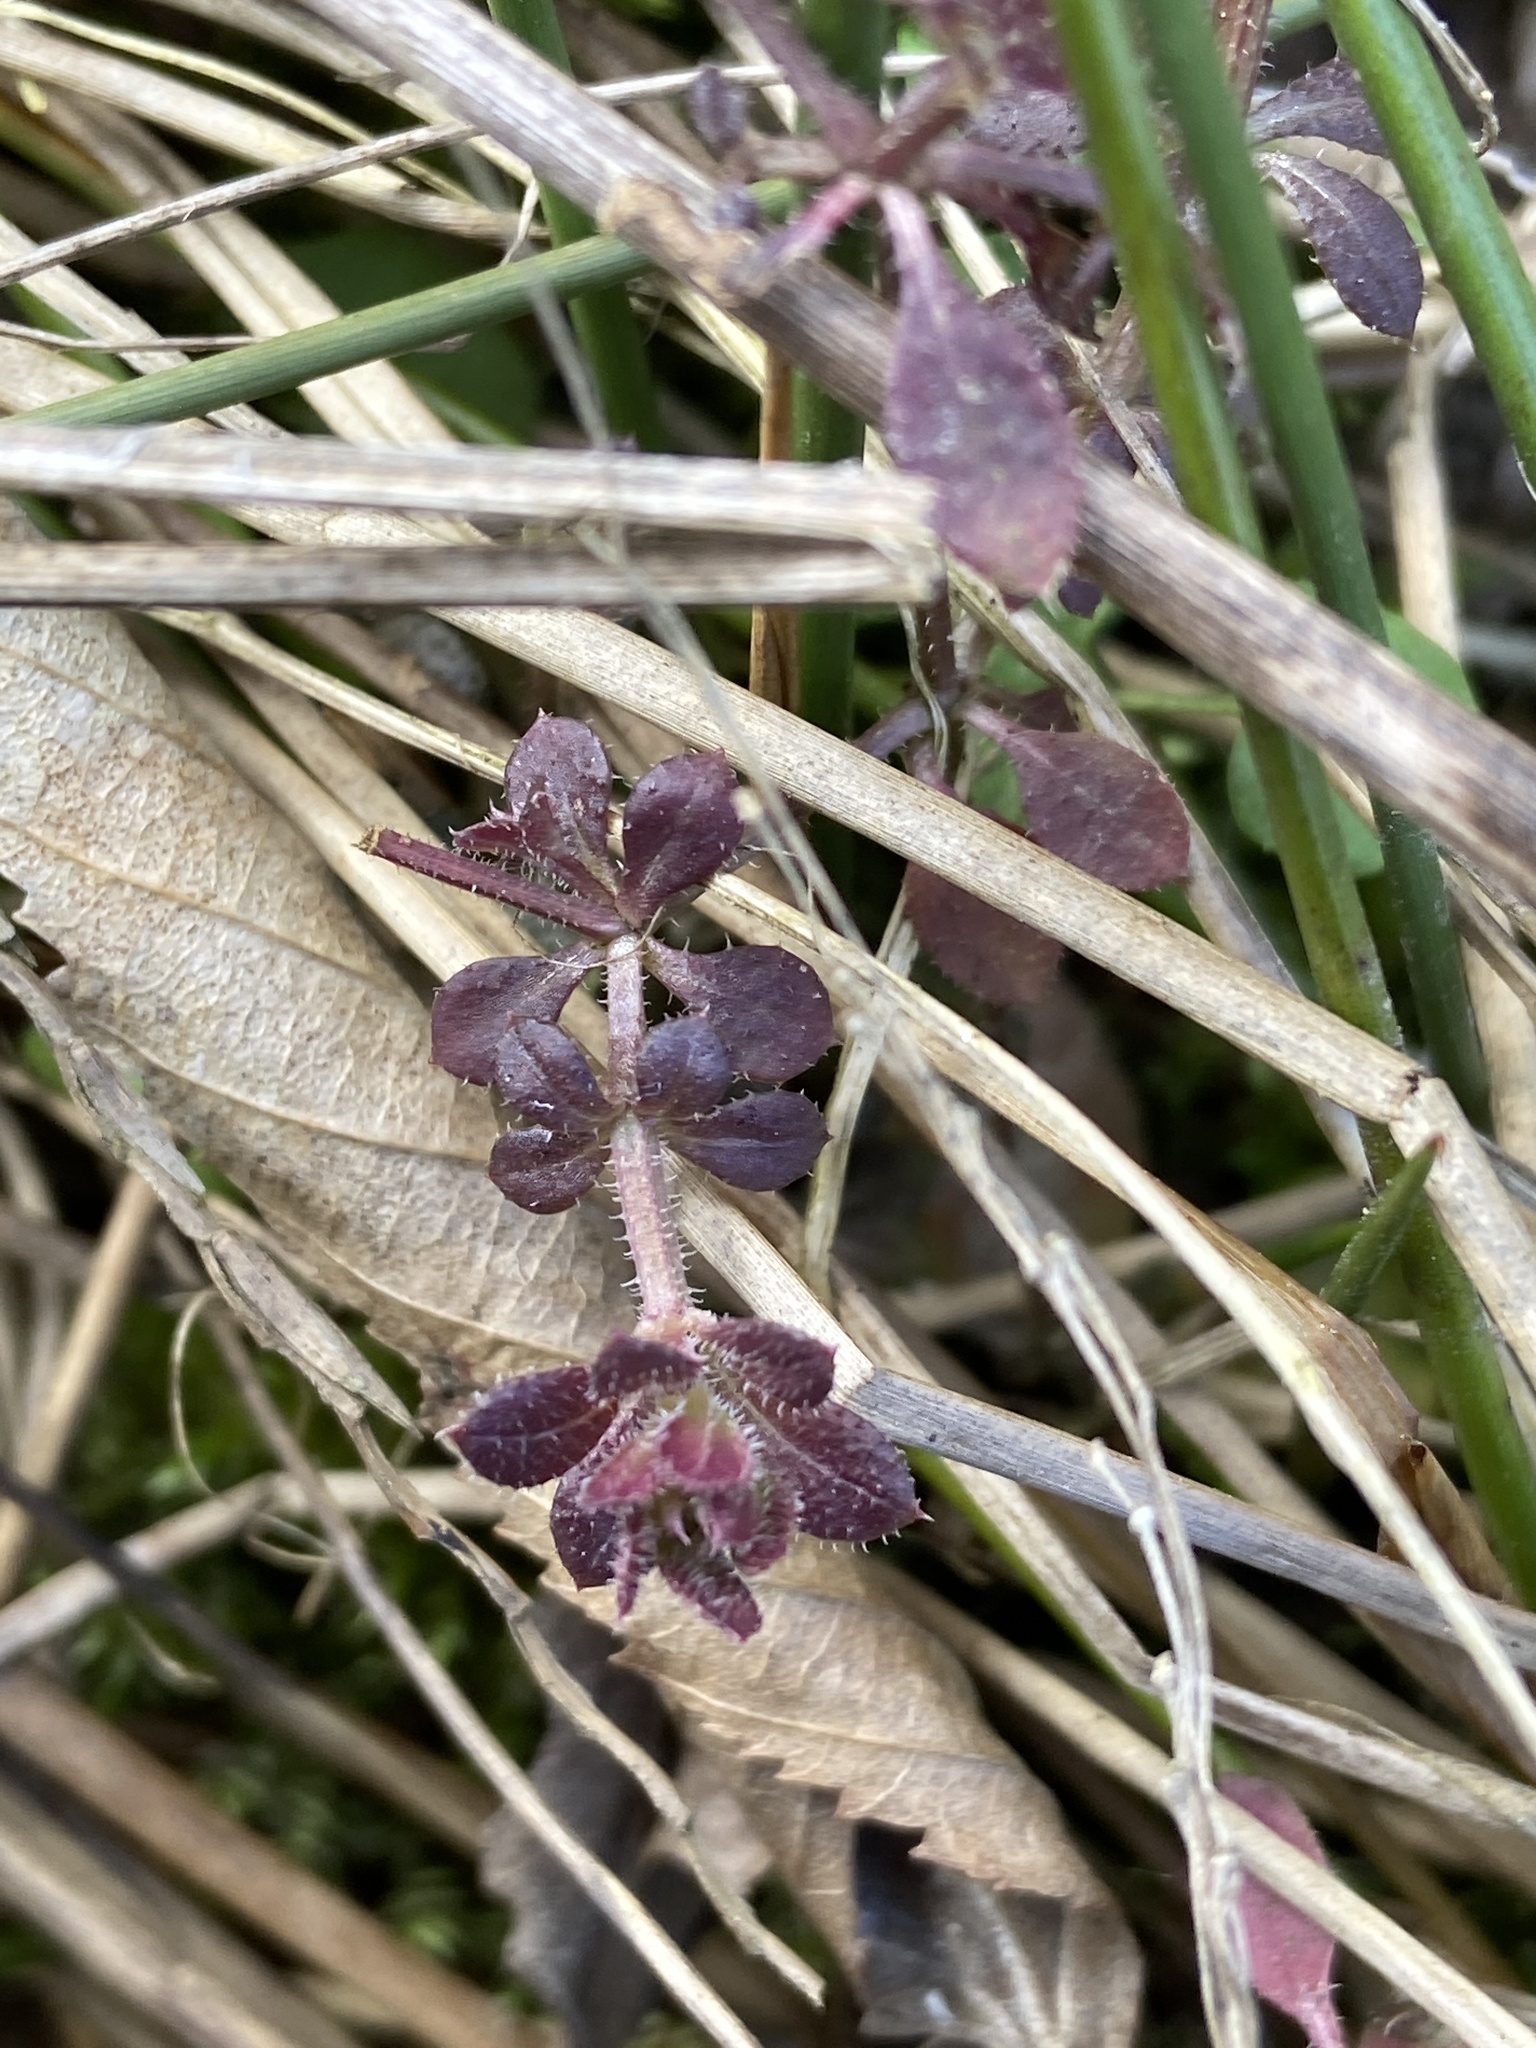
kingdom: Plantae
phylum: Tracheophyta
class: Magnoliopsida
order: Gentianales
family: Rubiaceae
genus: Galium
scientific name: Galium aparine
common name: Cleavers
